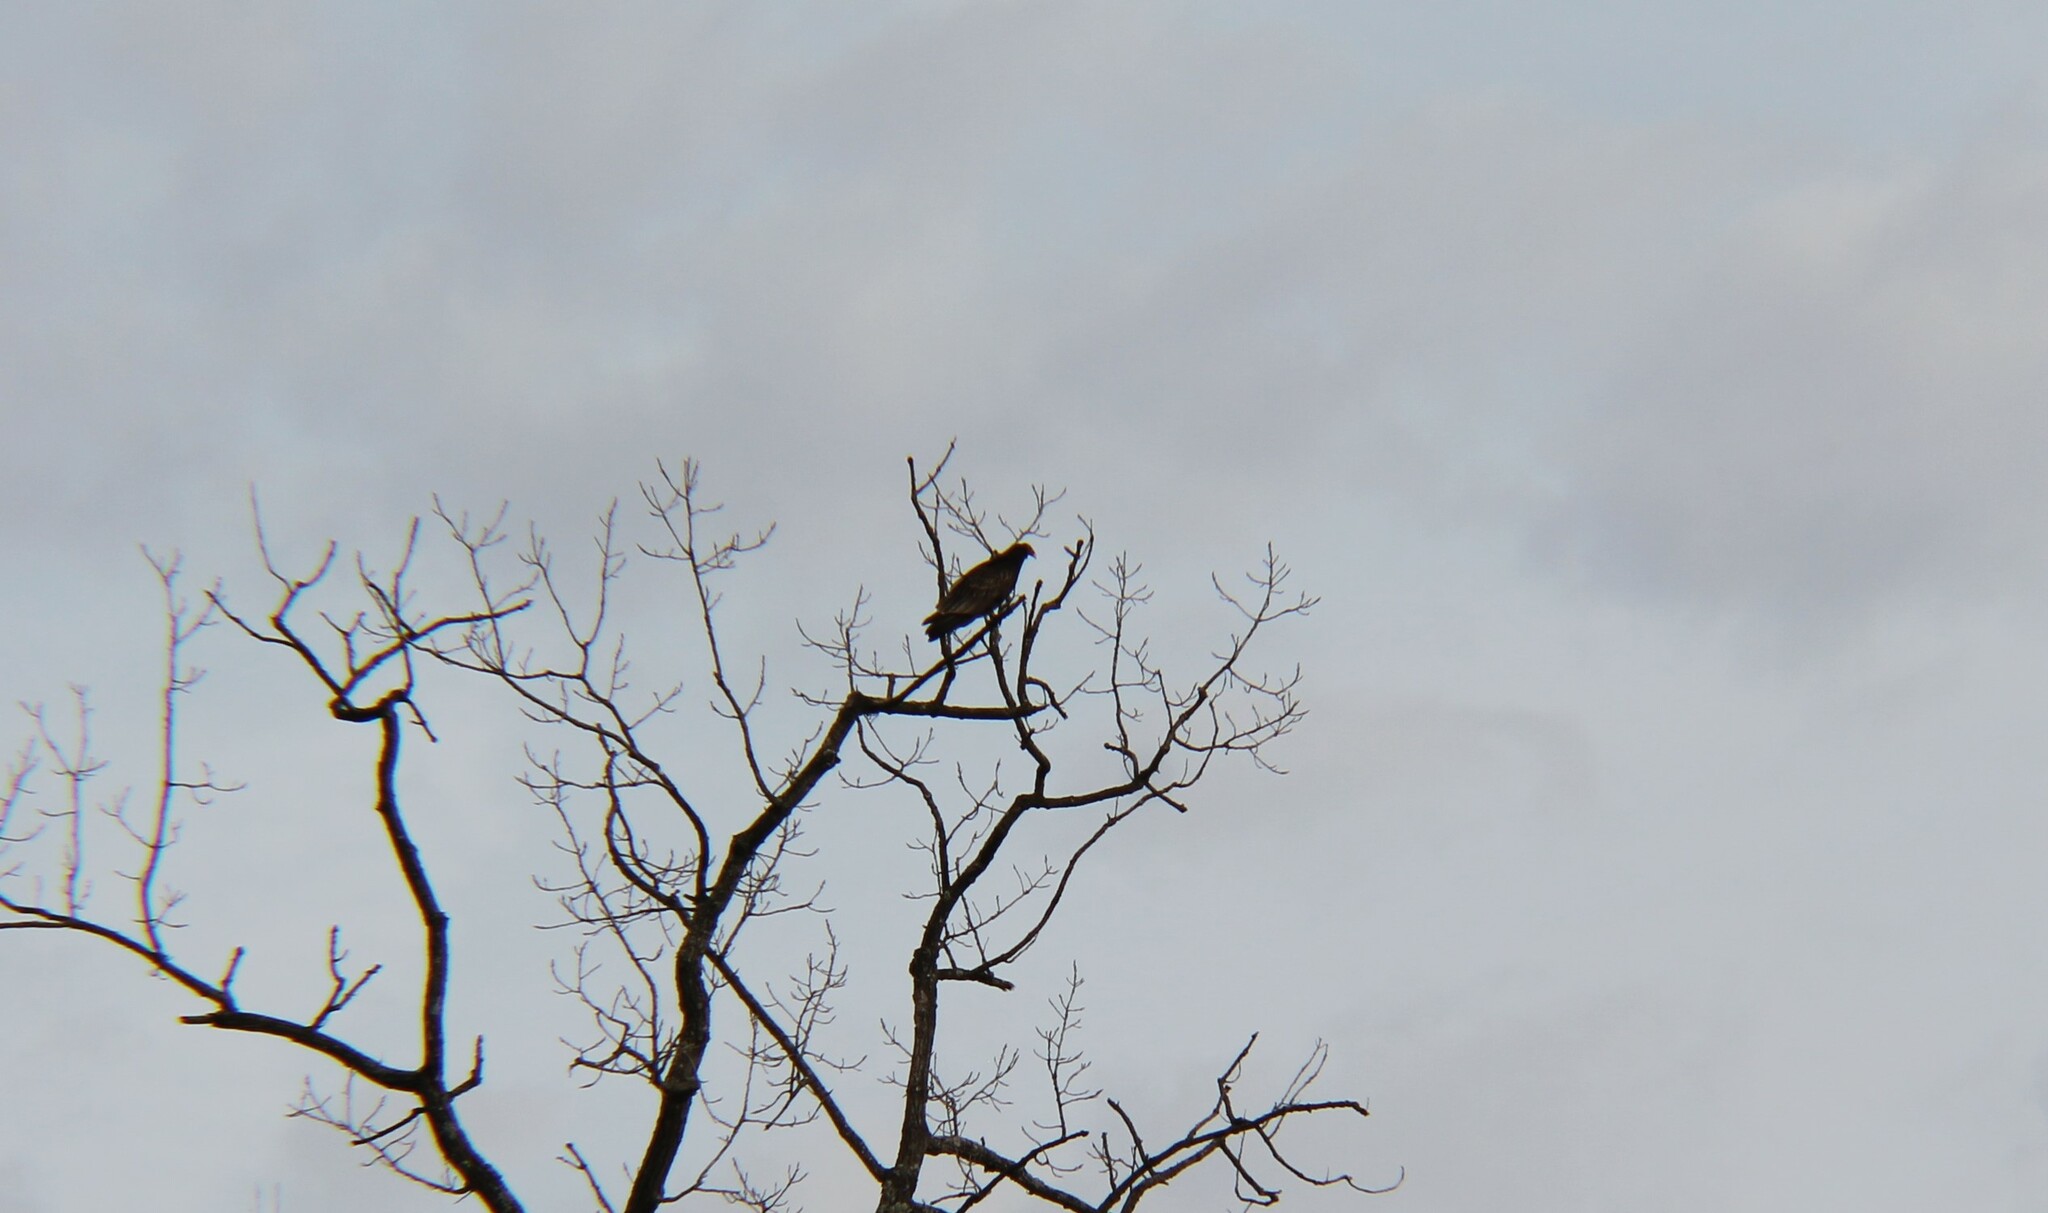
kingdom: Animalia
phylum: Chordata
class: Aves
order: Accipitriformes
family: Cathartidae
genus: Cathartes
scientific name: Cathartes aura
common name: Turkey vulture
